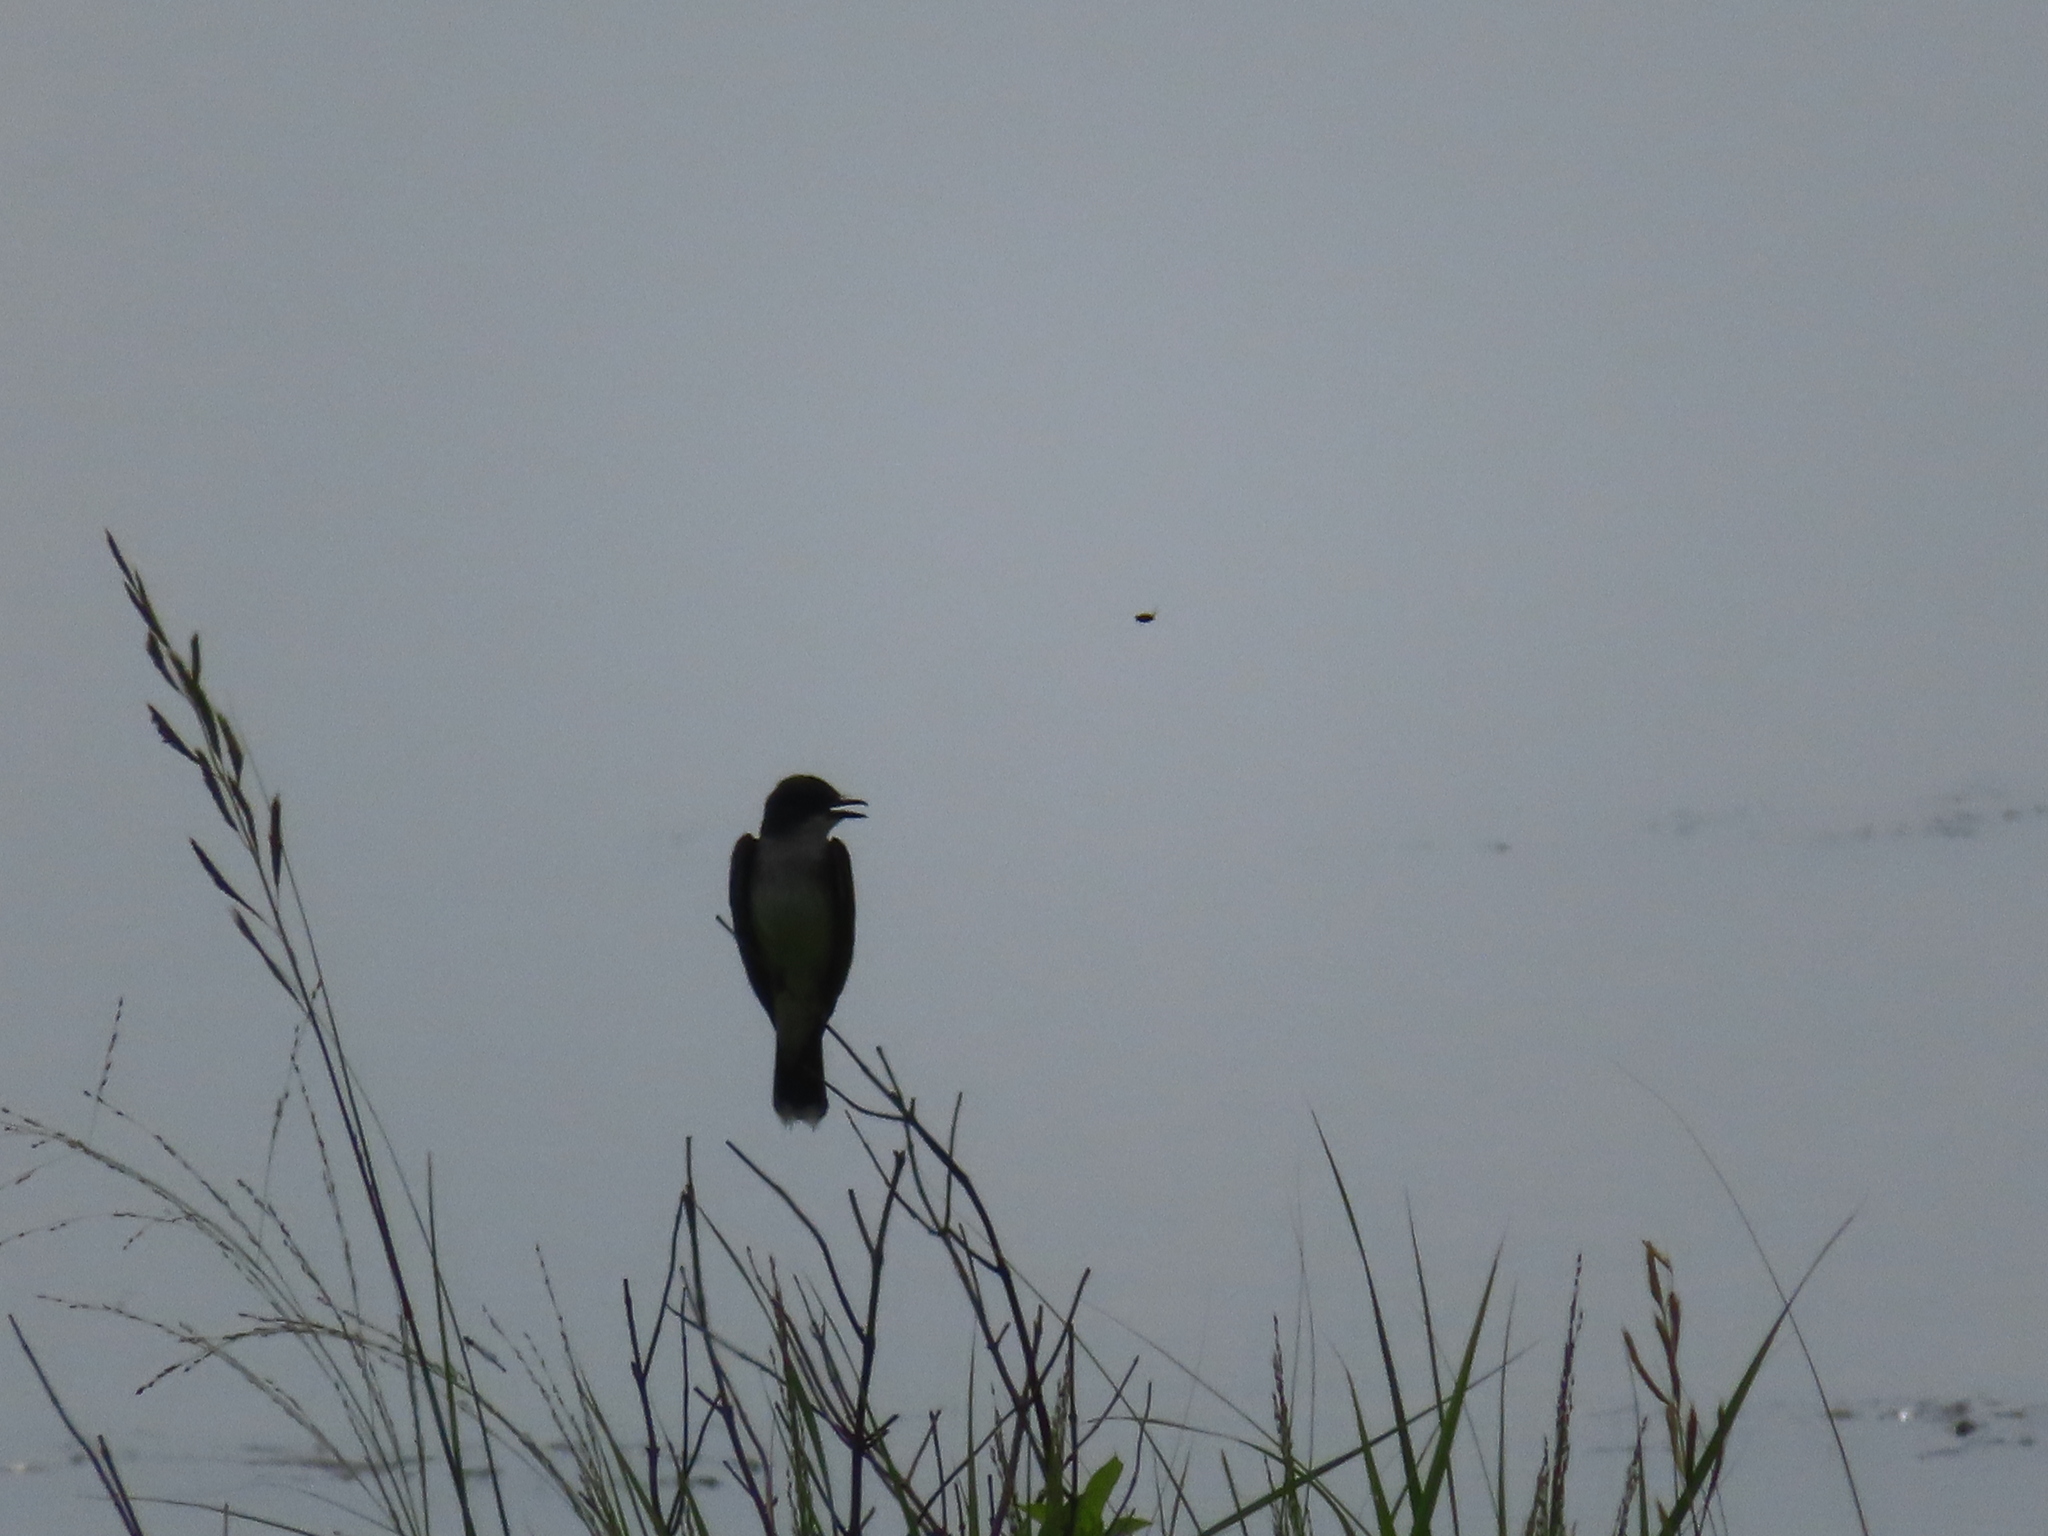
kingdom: Animalia
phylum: Chordata
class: Aves
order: Passeriformes
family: Tyrannidae
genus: Tyrannus
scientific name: Tyrannus tyrannus
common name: Eastern kingbird
